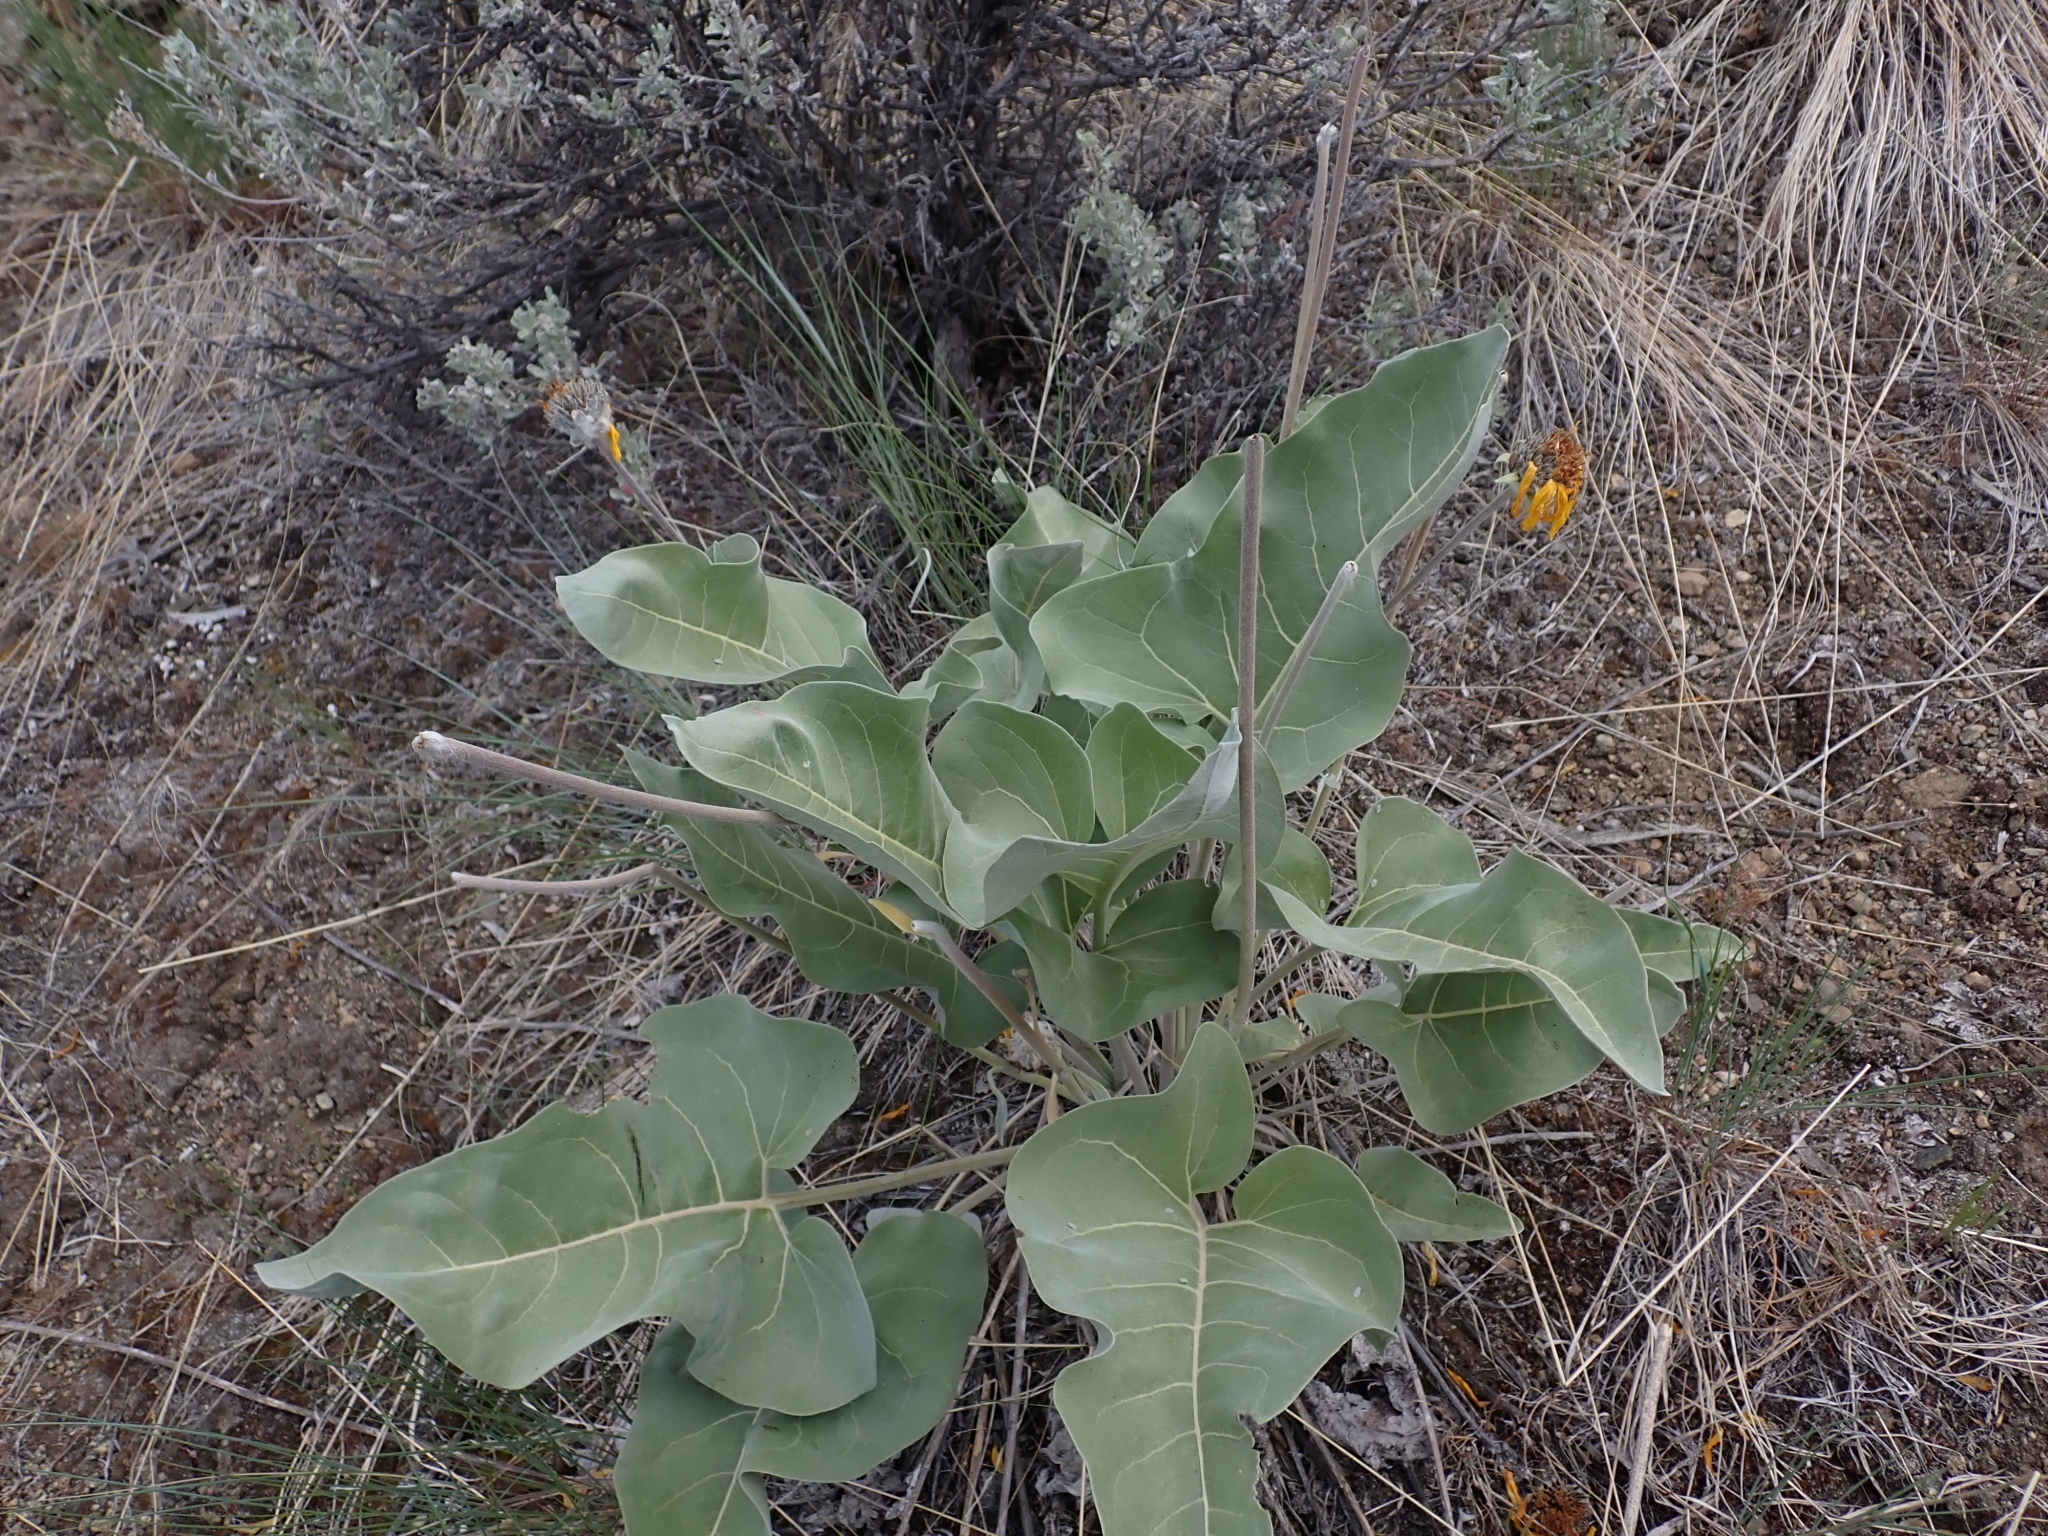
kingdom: Plantae
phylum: Tracheophyta
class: Magnoliopsida
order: Asterales
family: Asteraceae
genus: Wyethia
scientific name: Wyethia sagittata
